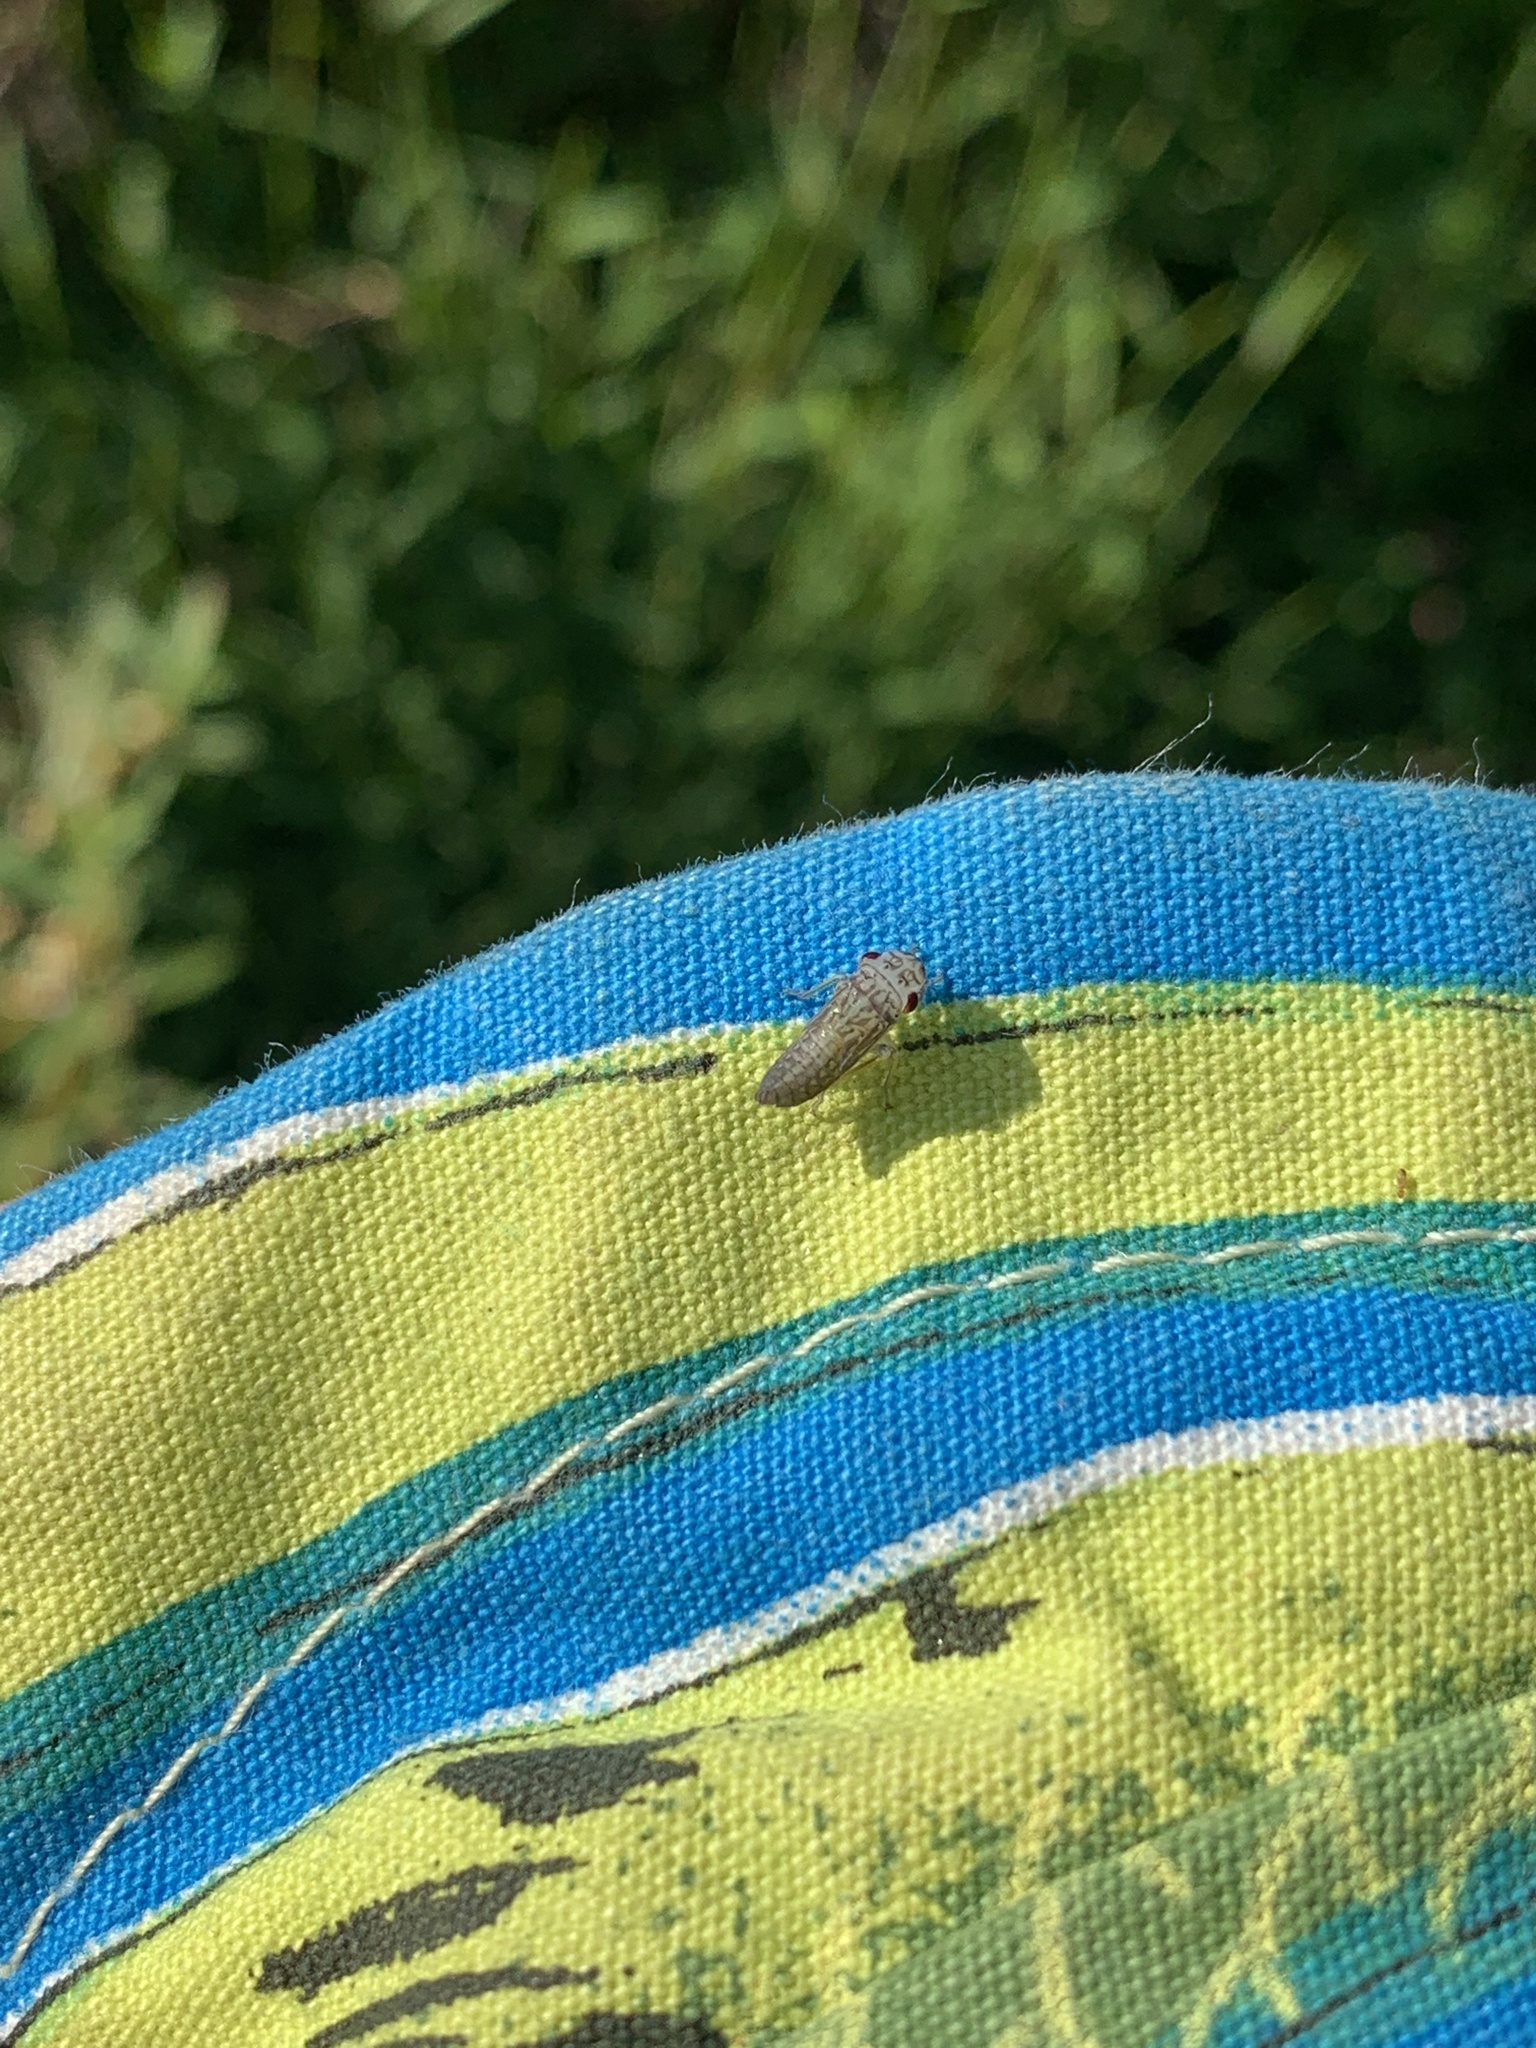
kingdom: Animalia
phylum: Arthropoda
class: Insecta
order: Hemiptera
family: Cicadellidae
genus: Oncometopia
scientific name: Oncometopia orbona
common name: Broad-headed sharpshooter
